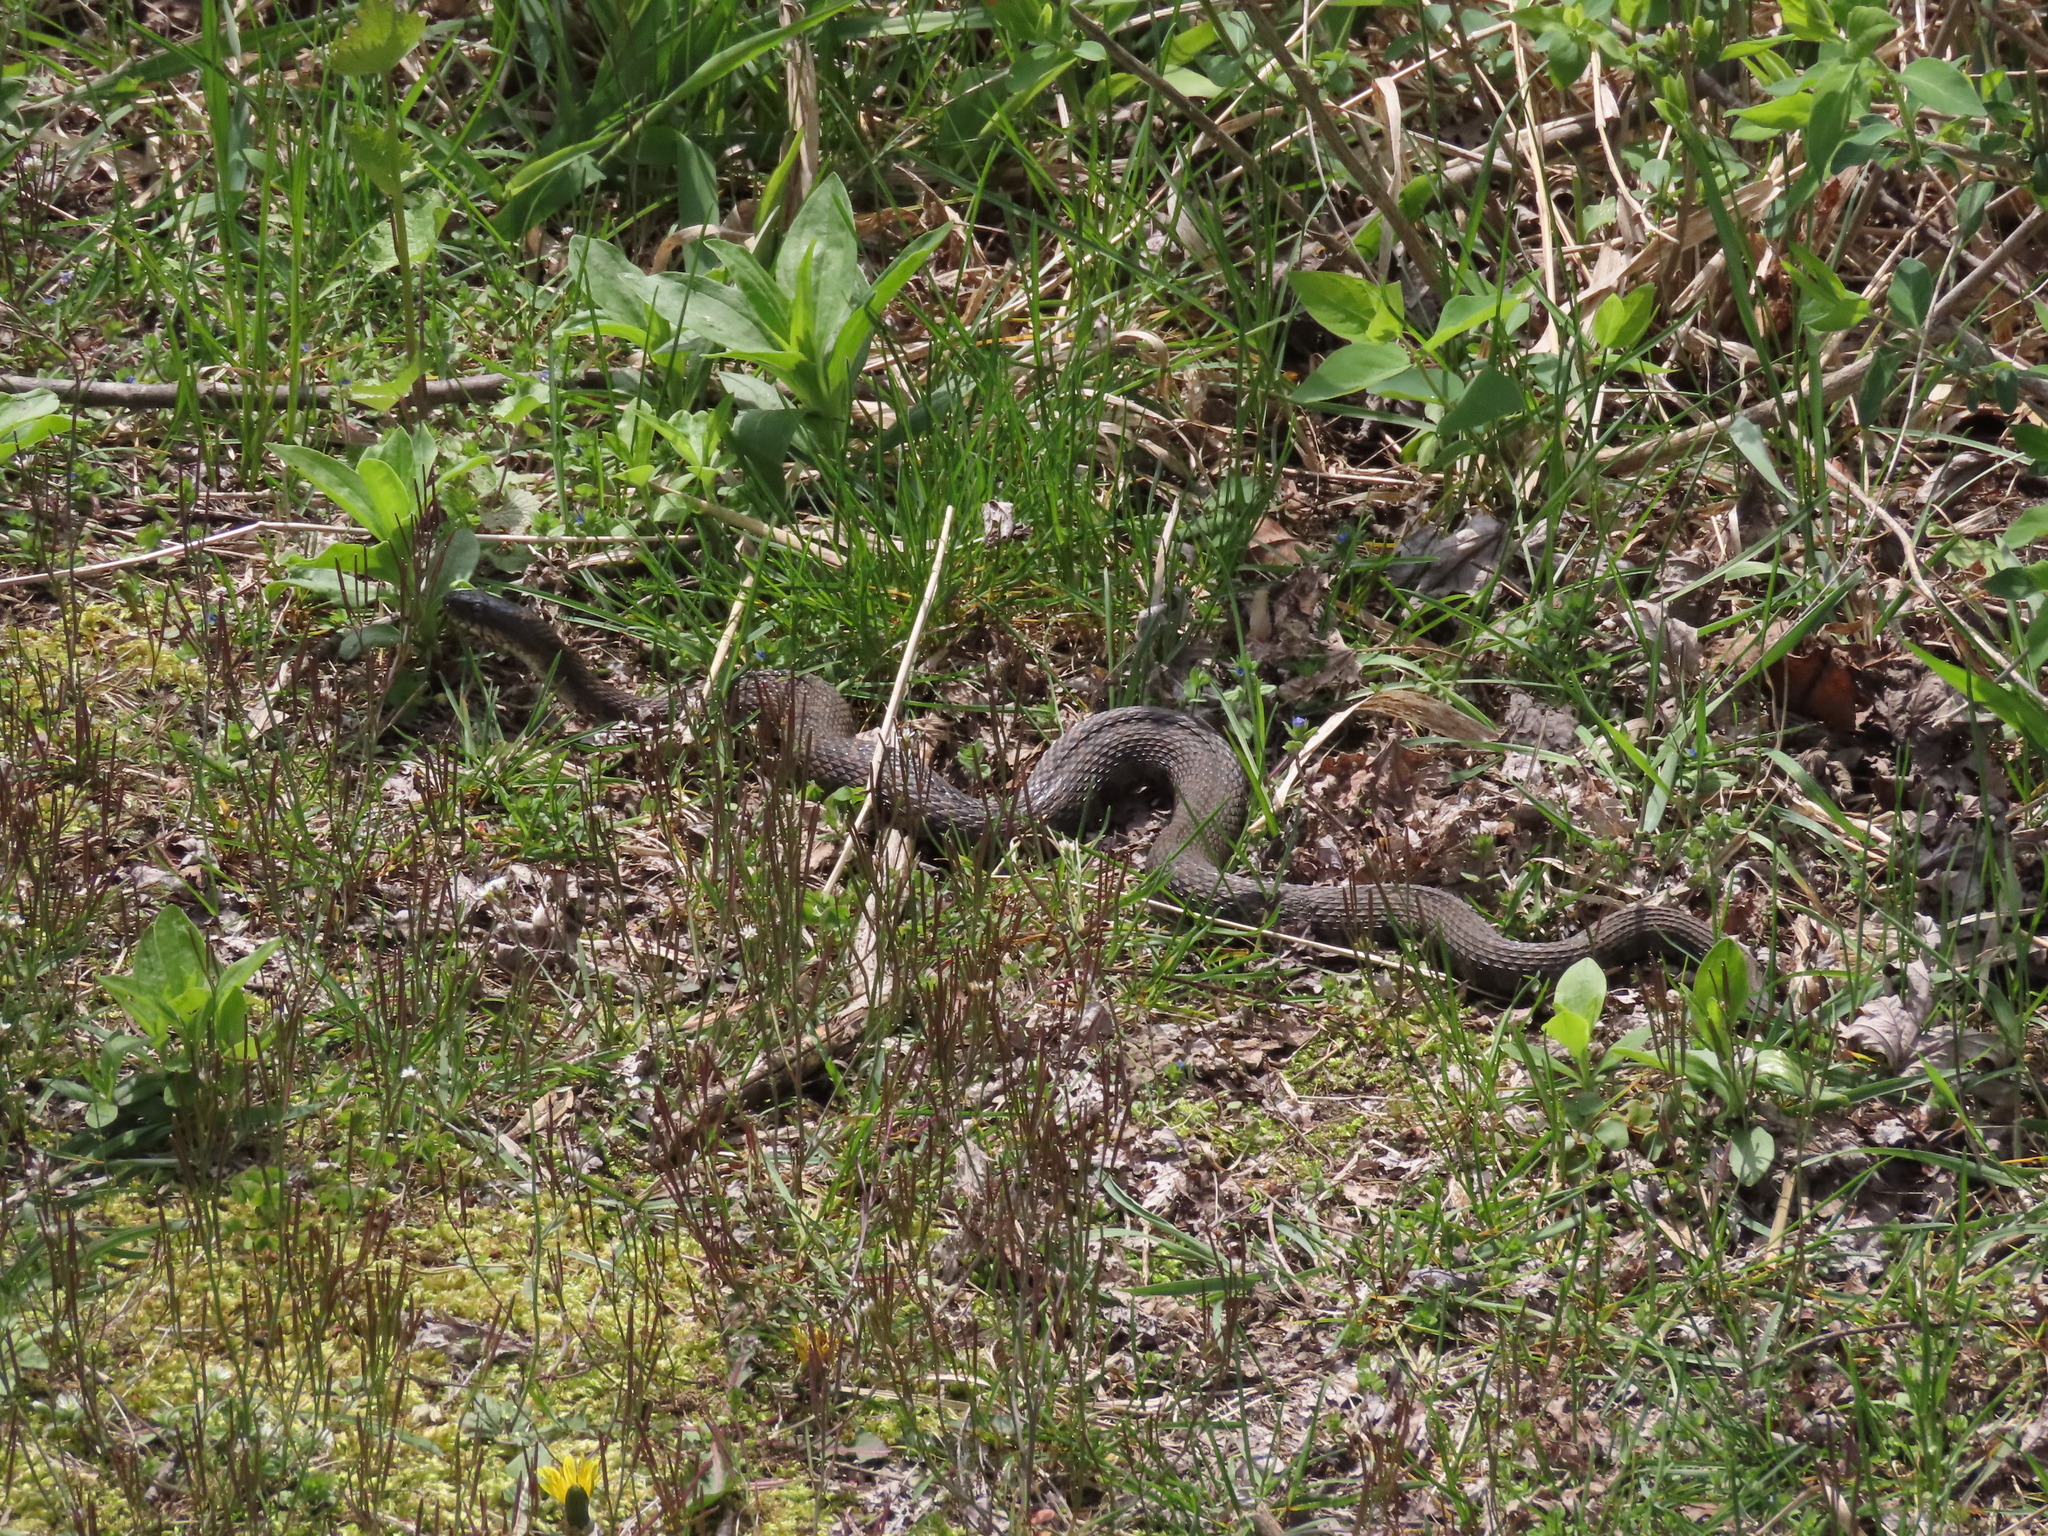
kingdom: Animalia
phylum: Chordata
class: Squamata
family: Colubridae
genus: Nerodia
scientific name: Nerodia sipedon
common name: Northern water snake
